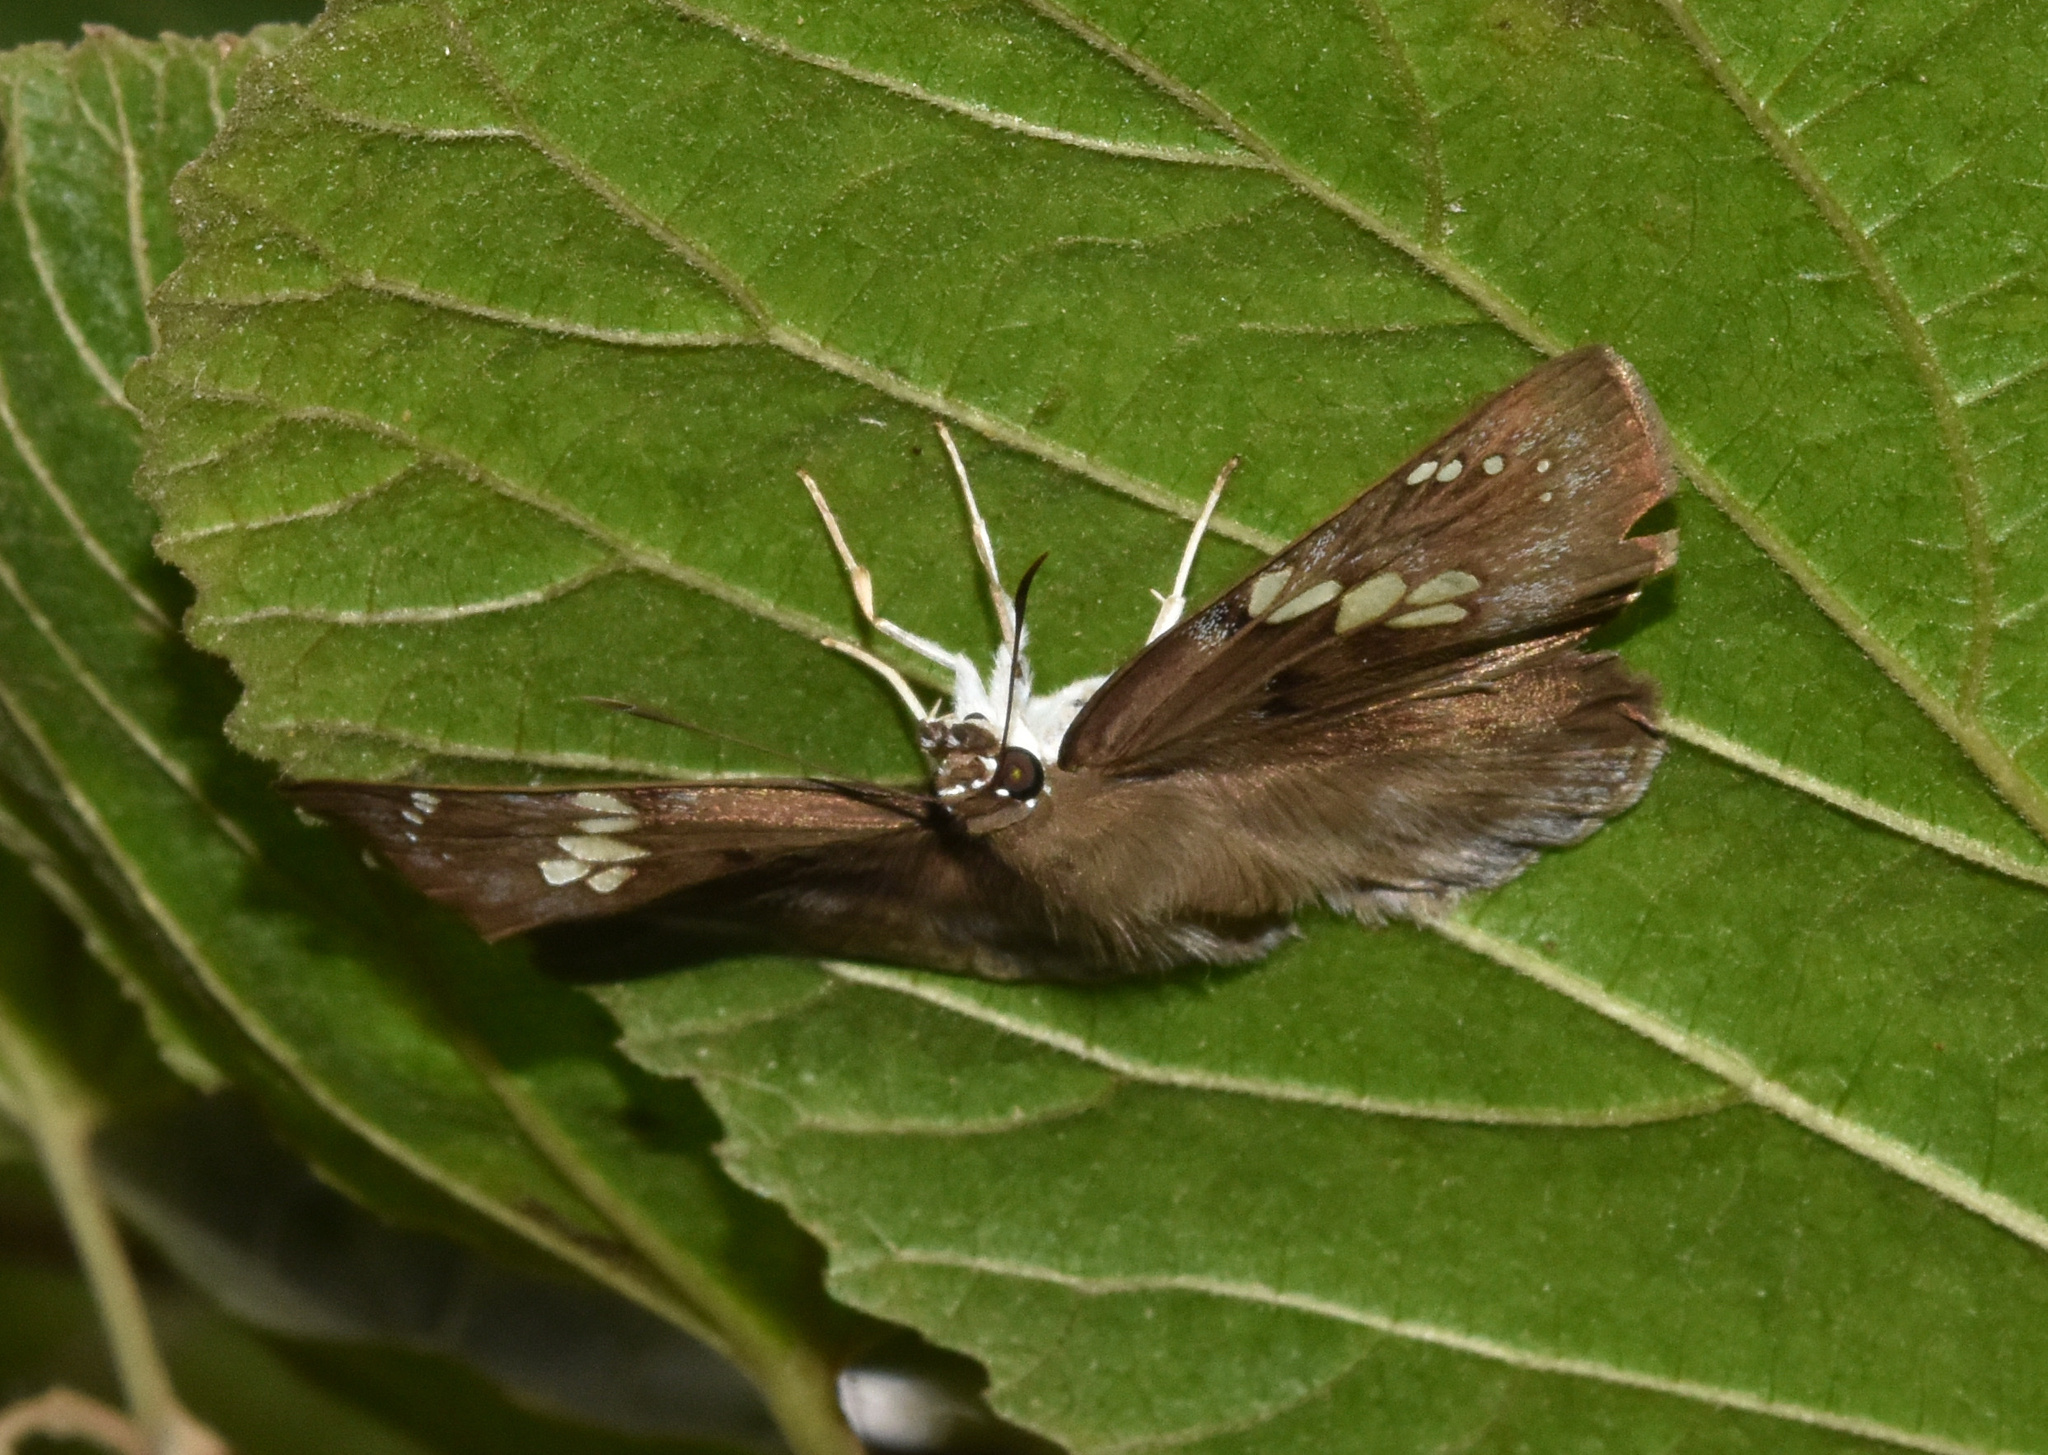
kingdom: Animalia
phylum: Arthropoda
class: Insecta
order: Lepidoptera
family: Hesperiidae
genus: Tagiades
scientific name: Tagiades flesus
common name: Clouded flat
